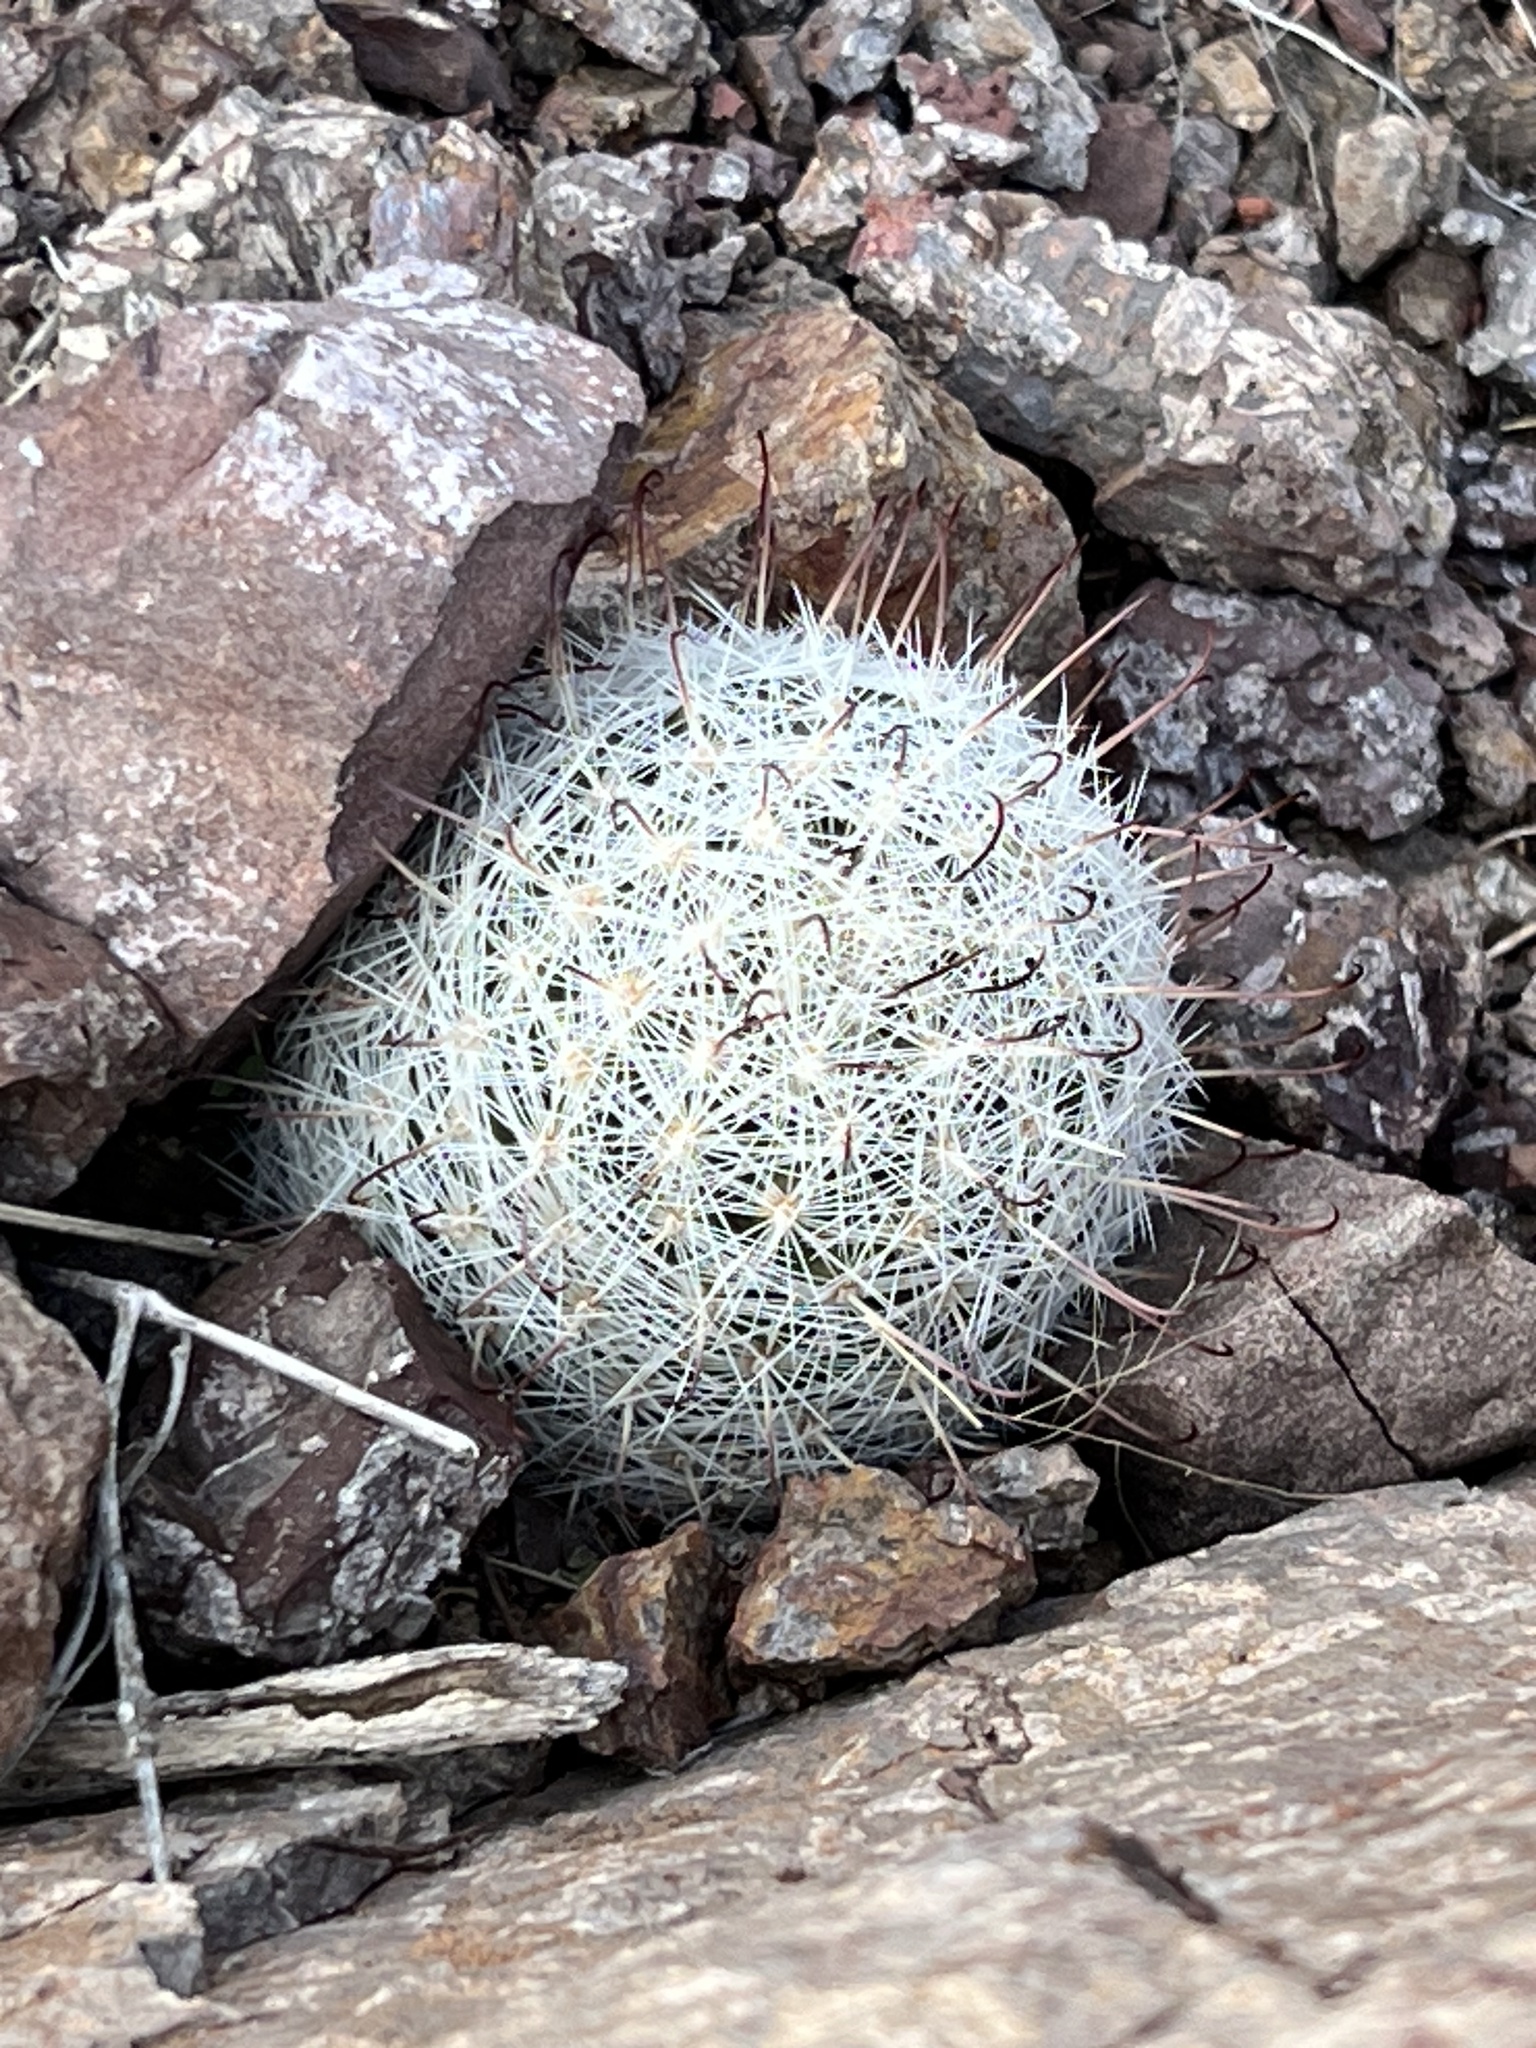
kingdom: Plantae
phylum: Tracheophyta
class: Magnoliopsida
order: Caryophyllales
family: Cactaceae
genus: Cochemiea
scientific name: Cochemiea grahamii
